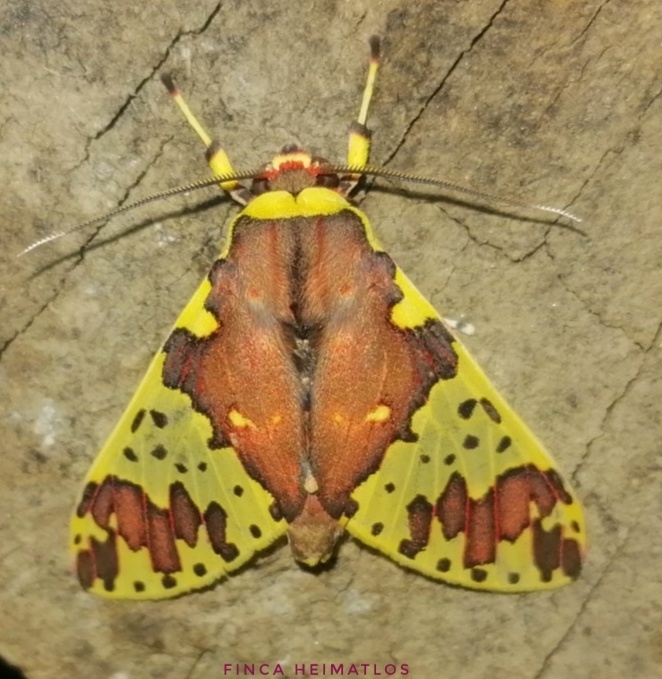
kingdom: Animalia
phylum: Arthropoda
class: Insecta
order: Lepidoptera
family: Erebidae
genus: Amaxia
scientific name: Amaxia carinosa
